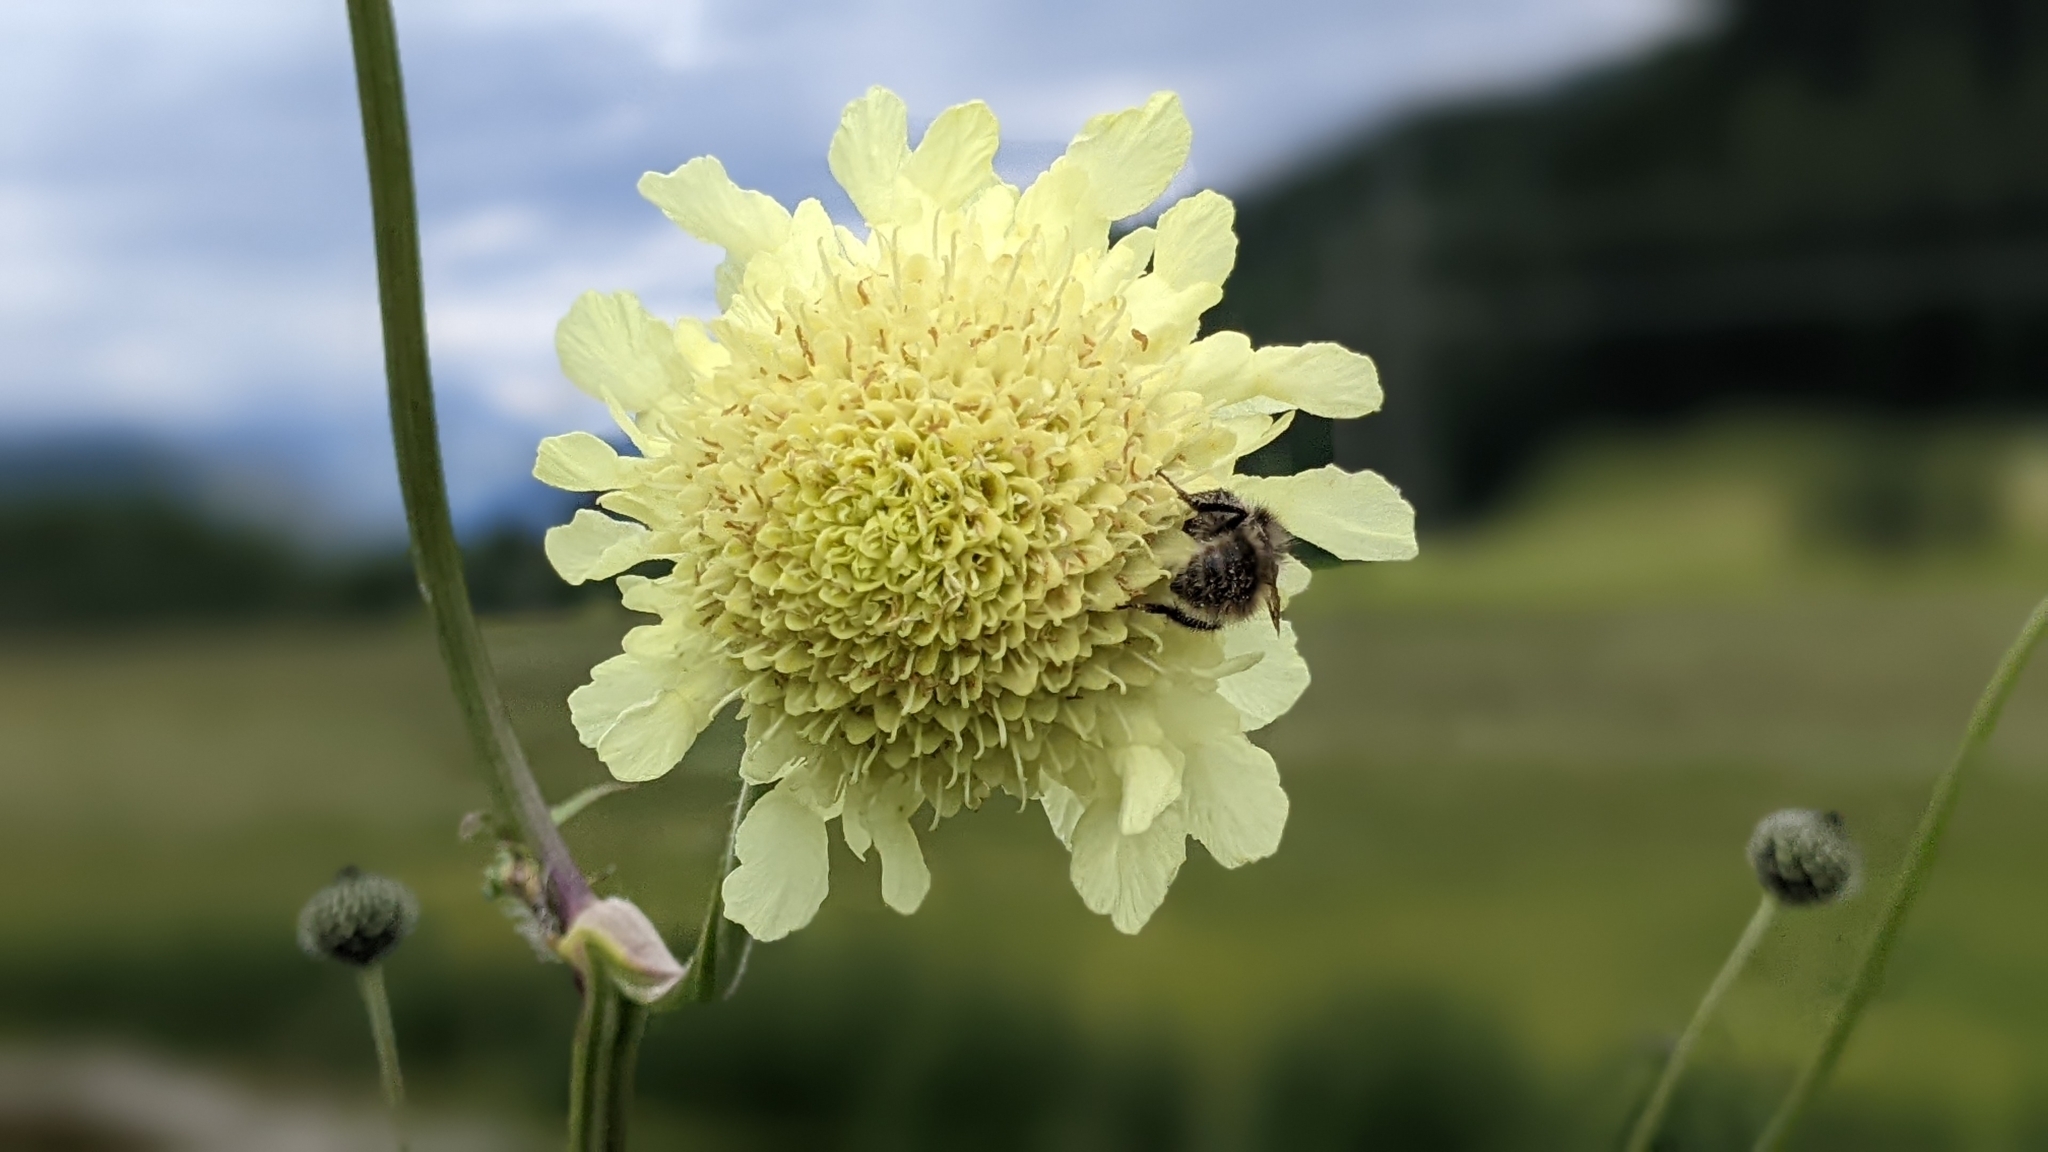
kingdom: Plantae
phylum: Tracheophyta
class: Magnoliopsida
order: Dipsacales
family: Caprifoliaceae
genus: Cephalaria
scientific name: Cephalaria gigantea
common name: Tatarian cephalaria
